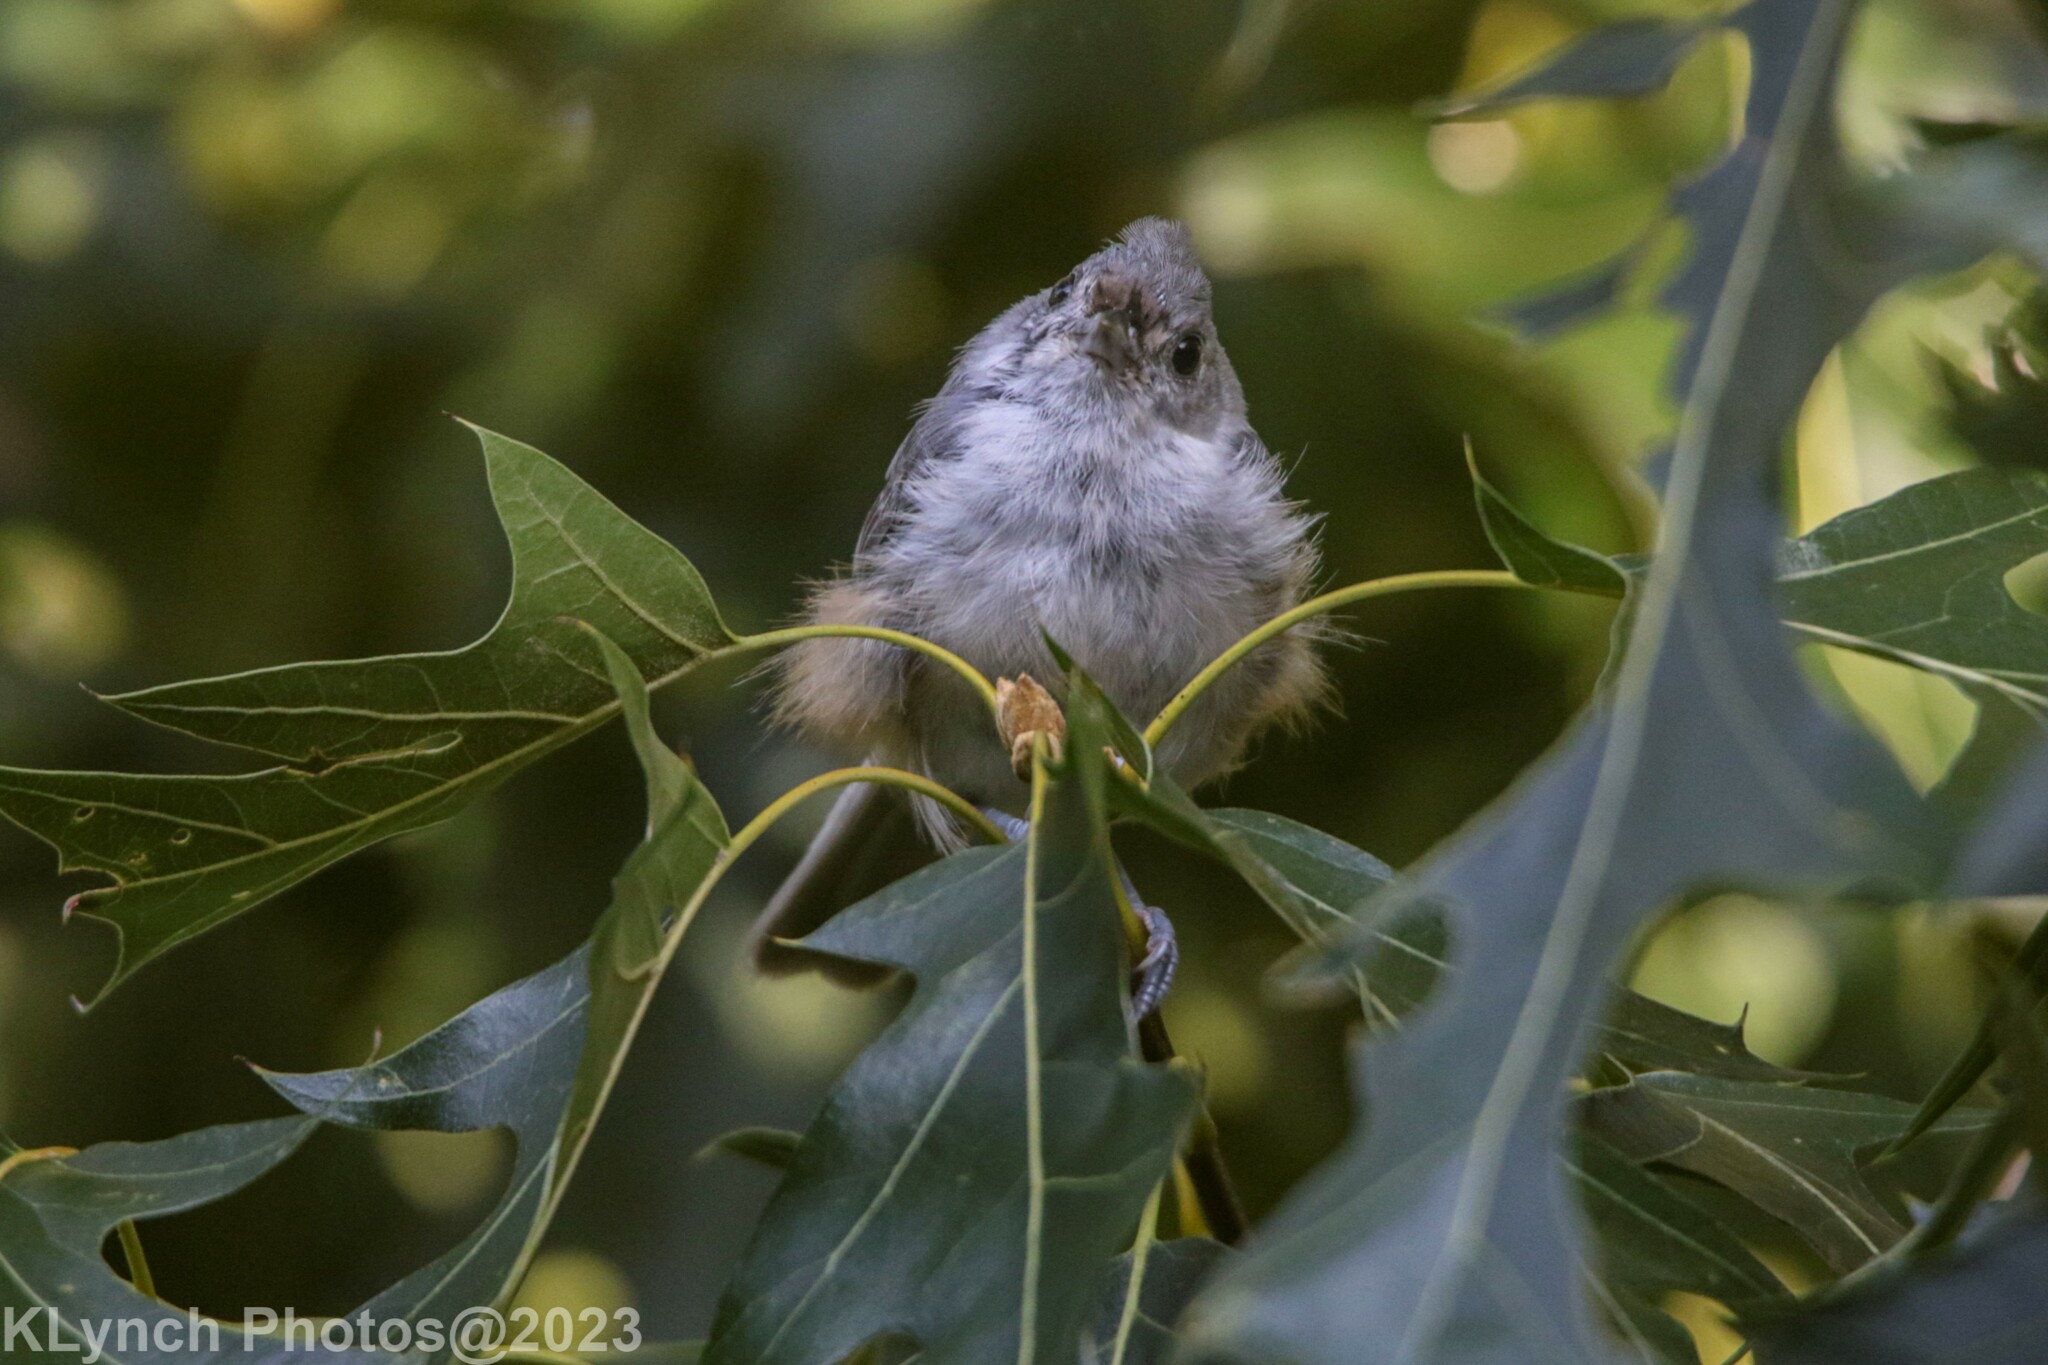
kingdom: Animalia
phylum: Chordata
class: Aves
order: Passeriformes
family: Paridae
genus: Baeolophus
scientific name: Baeolophus bicolor
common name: Tufted titmouse
